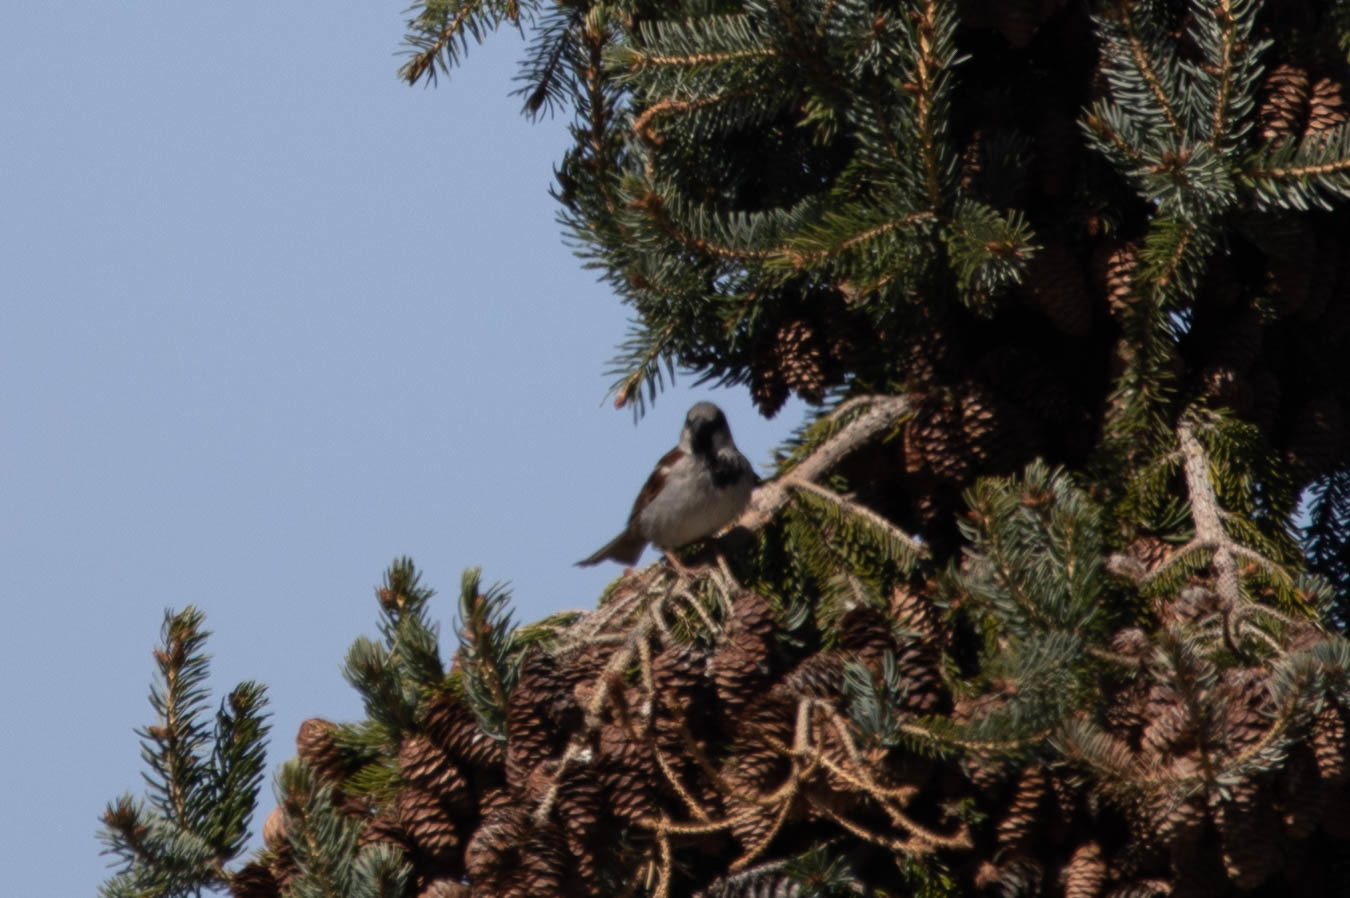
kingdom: Animalia
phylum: Chordata
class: Aves
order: Passeriformes
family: Passeridae
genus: Passer
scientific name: Passer domesticus
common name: House sparrow
